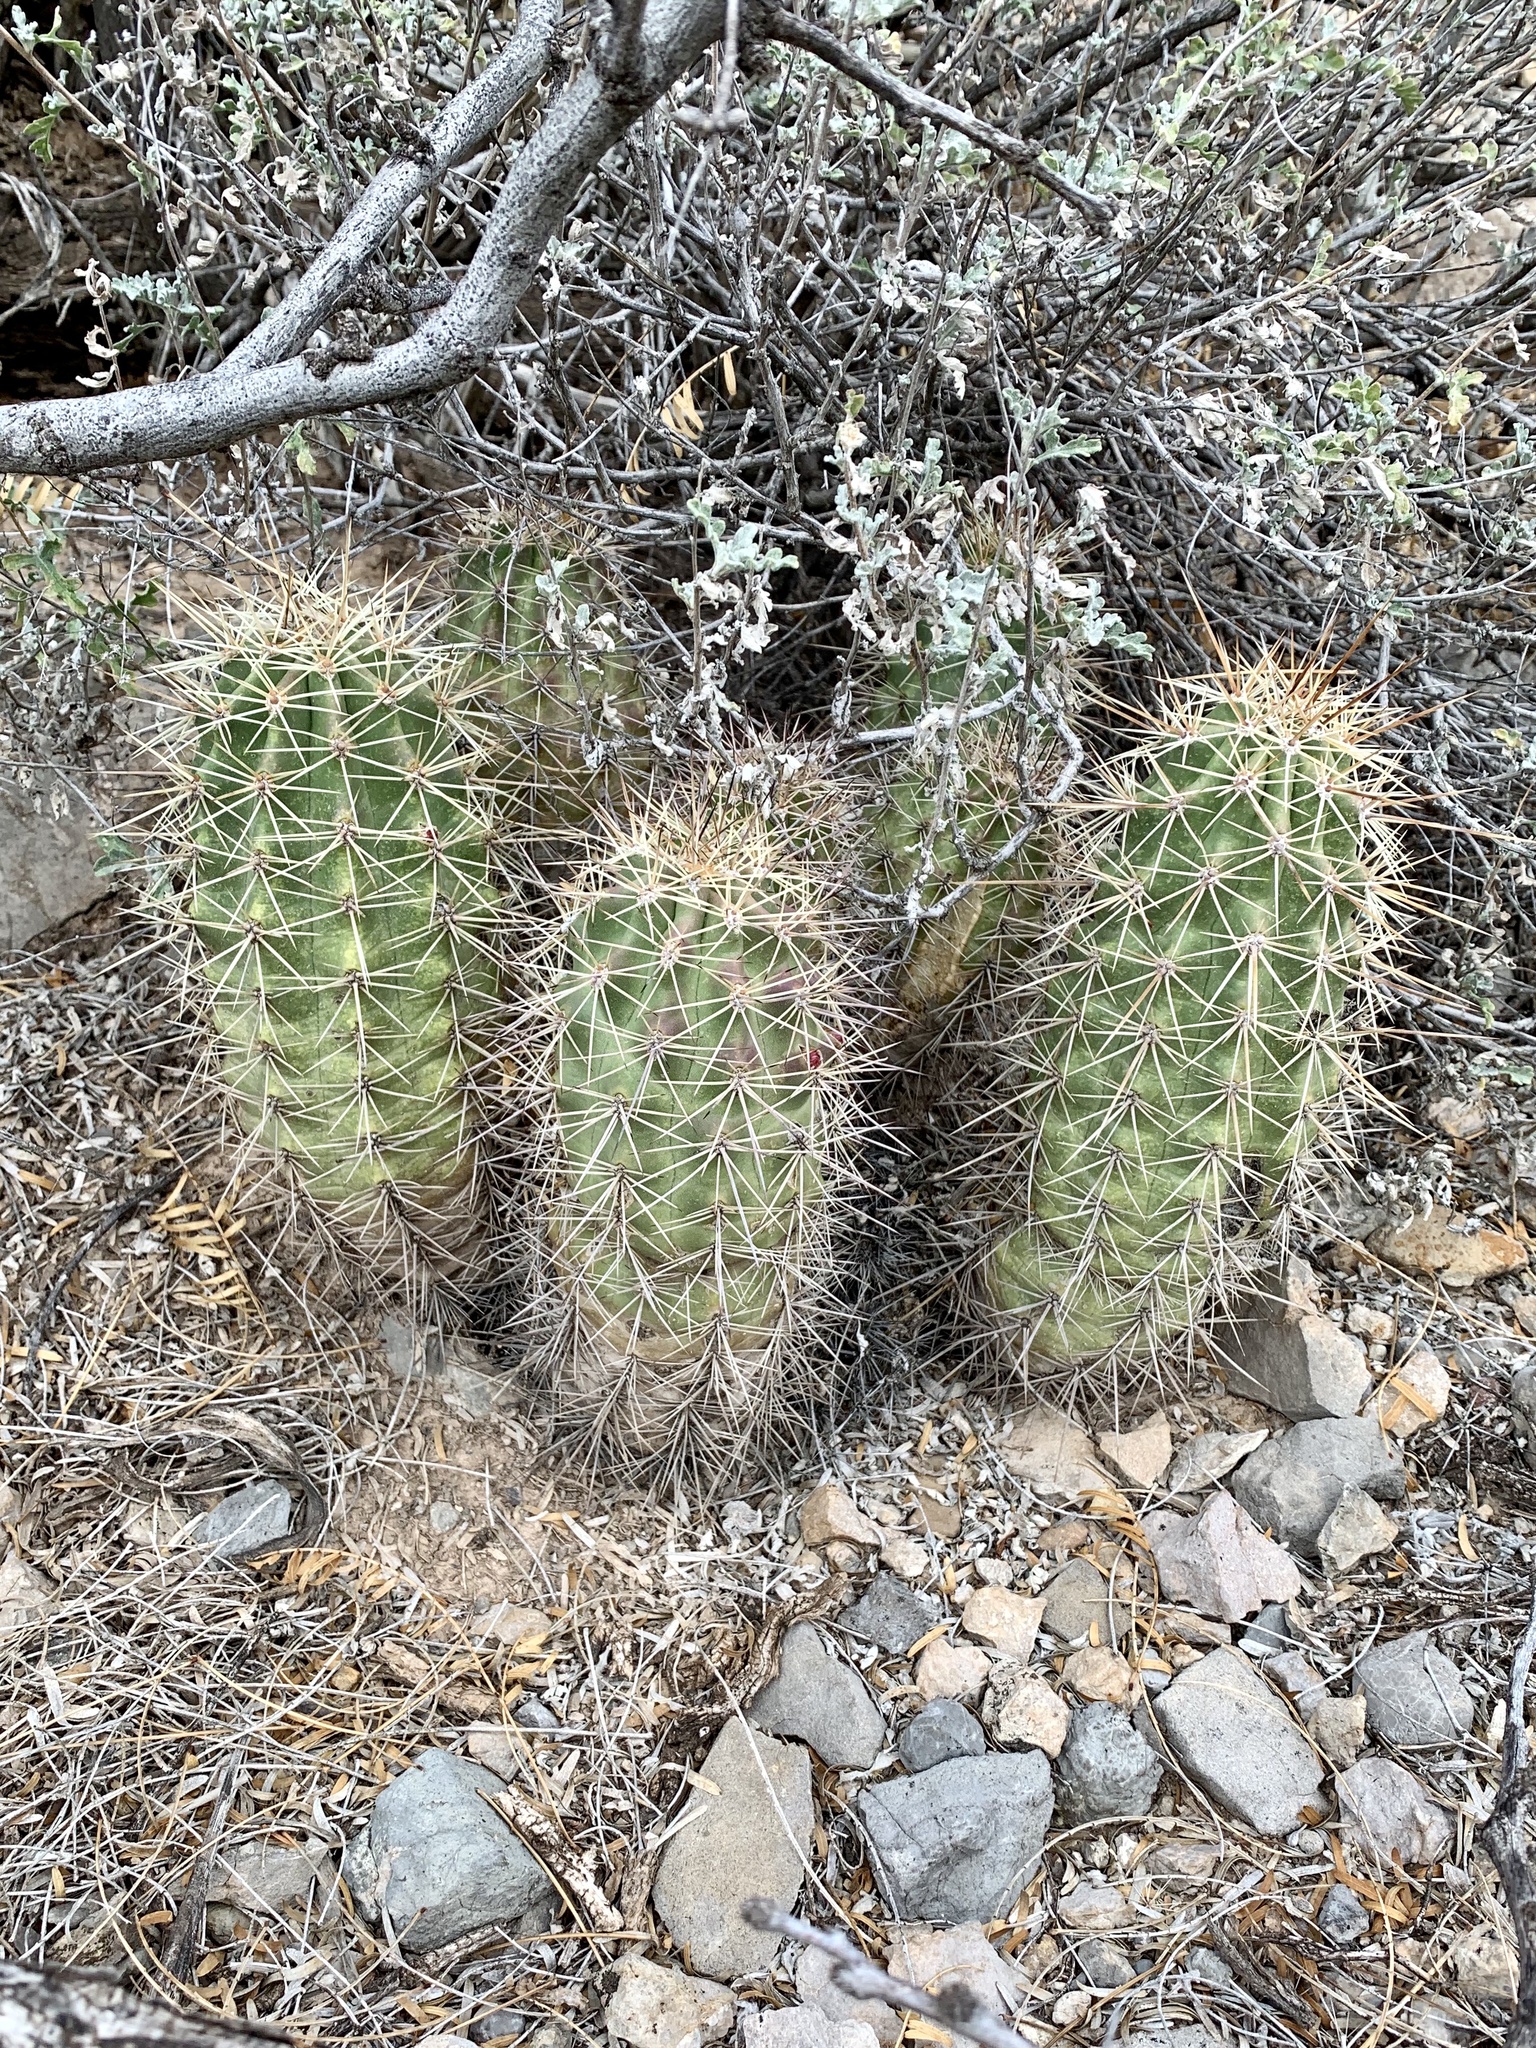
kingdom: Plantae
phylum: Tracheophyta
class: Magnoliopsida
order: Caryophyllales
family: Cactaceae
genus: Echinocereus
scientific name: Echinocereus coccineus
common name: Scarlet hedgehog cactus
